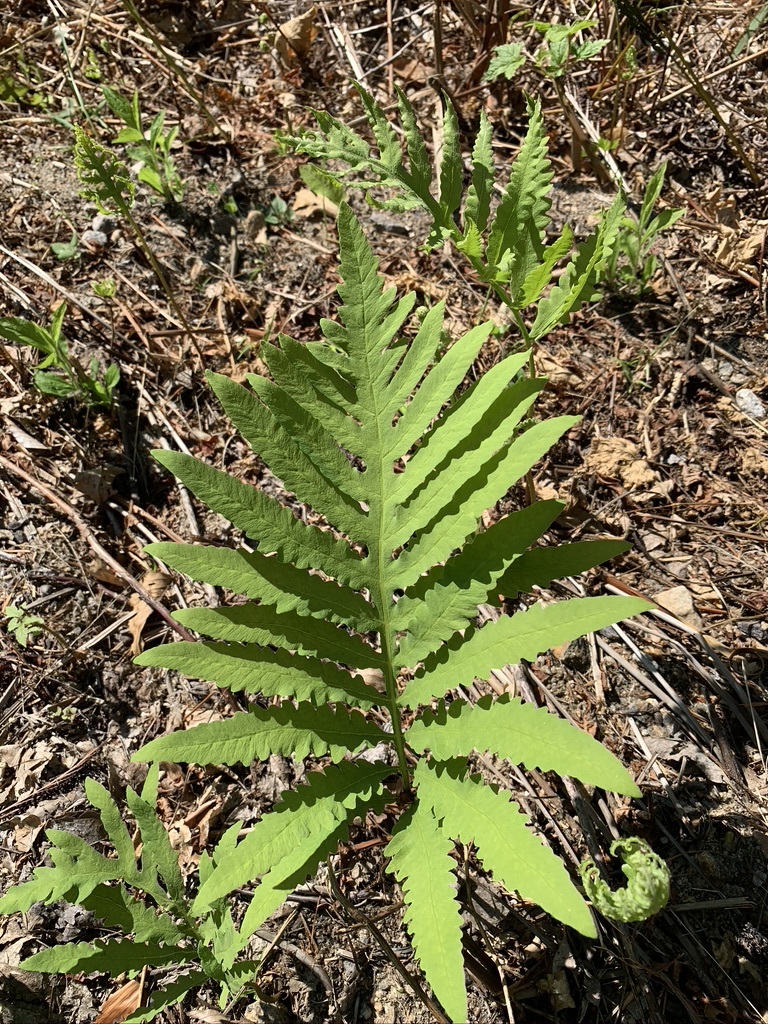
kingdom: Plantae
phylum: Tracheophyta
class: Polypodiopsida
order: Polypodiales
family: Onocleaceae
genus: Onoclea
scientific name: Onoclea sensibilis
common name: Sensitive fern
